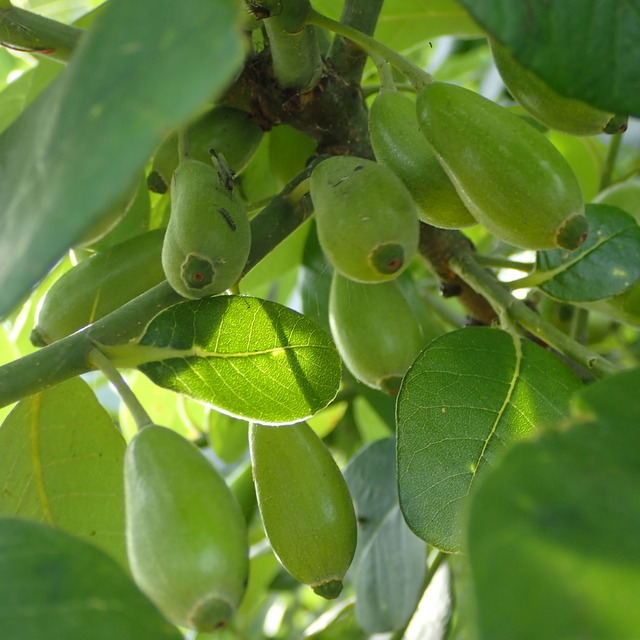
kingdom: Plantae
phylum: Tracheophyta
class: Magnoliopsida
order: Cornales
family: Nyssaceae
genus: Nyssa
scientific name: Nyssa ogeche
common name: Ogeechee tupelo
